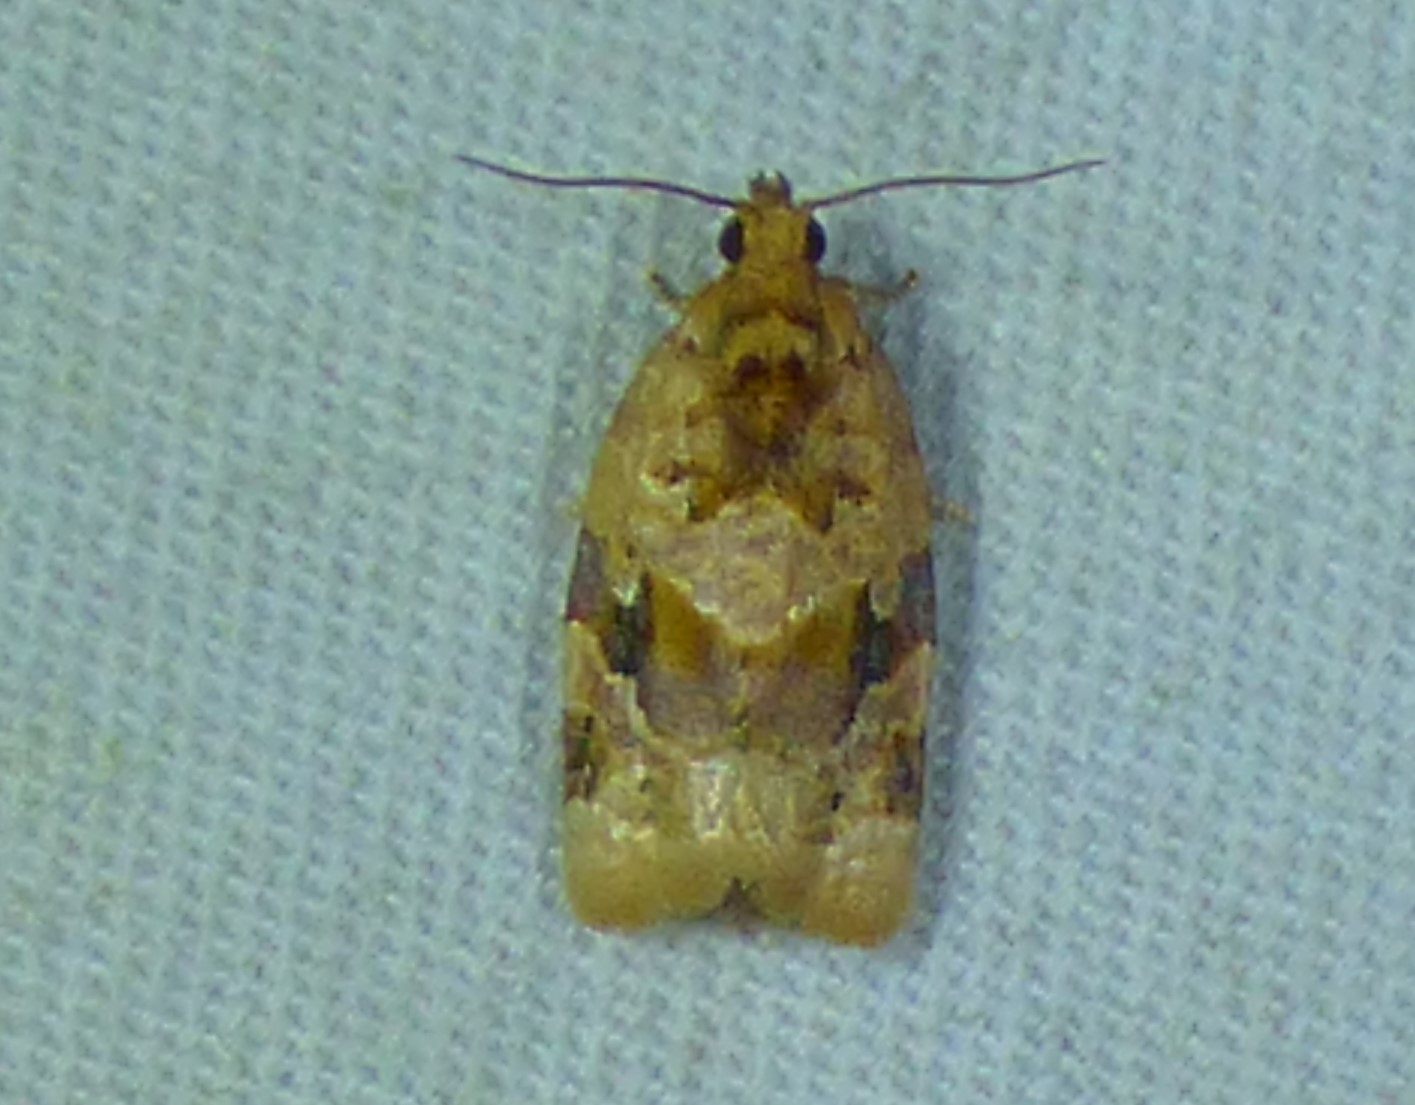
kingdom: Animalia
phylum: Arthropoda
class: Insecta
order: Lepidoptera
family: Tortricidae
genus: Argyrotaenia
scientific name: Argyrotaenia velutinana
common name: Red-banded leafroller moth
